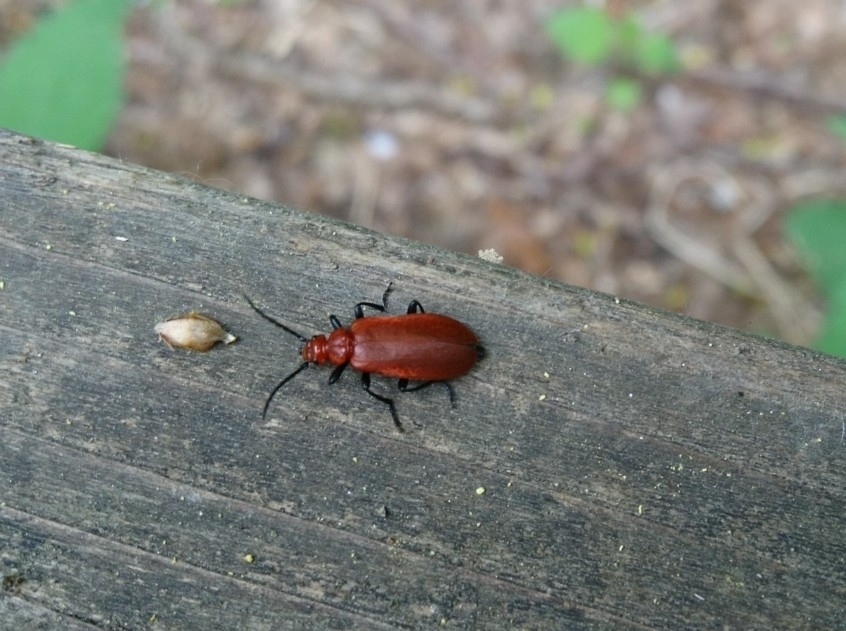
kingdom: Animalia
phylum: Arthropoda
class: Insecta
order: Coleoptera
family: Pyrochroidae
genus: Pyrochroa
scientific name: Pyrochroa serraticornis
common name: Red-headed cardinal beetle
